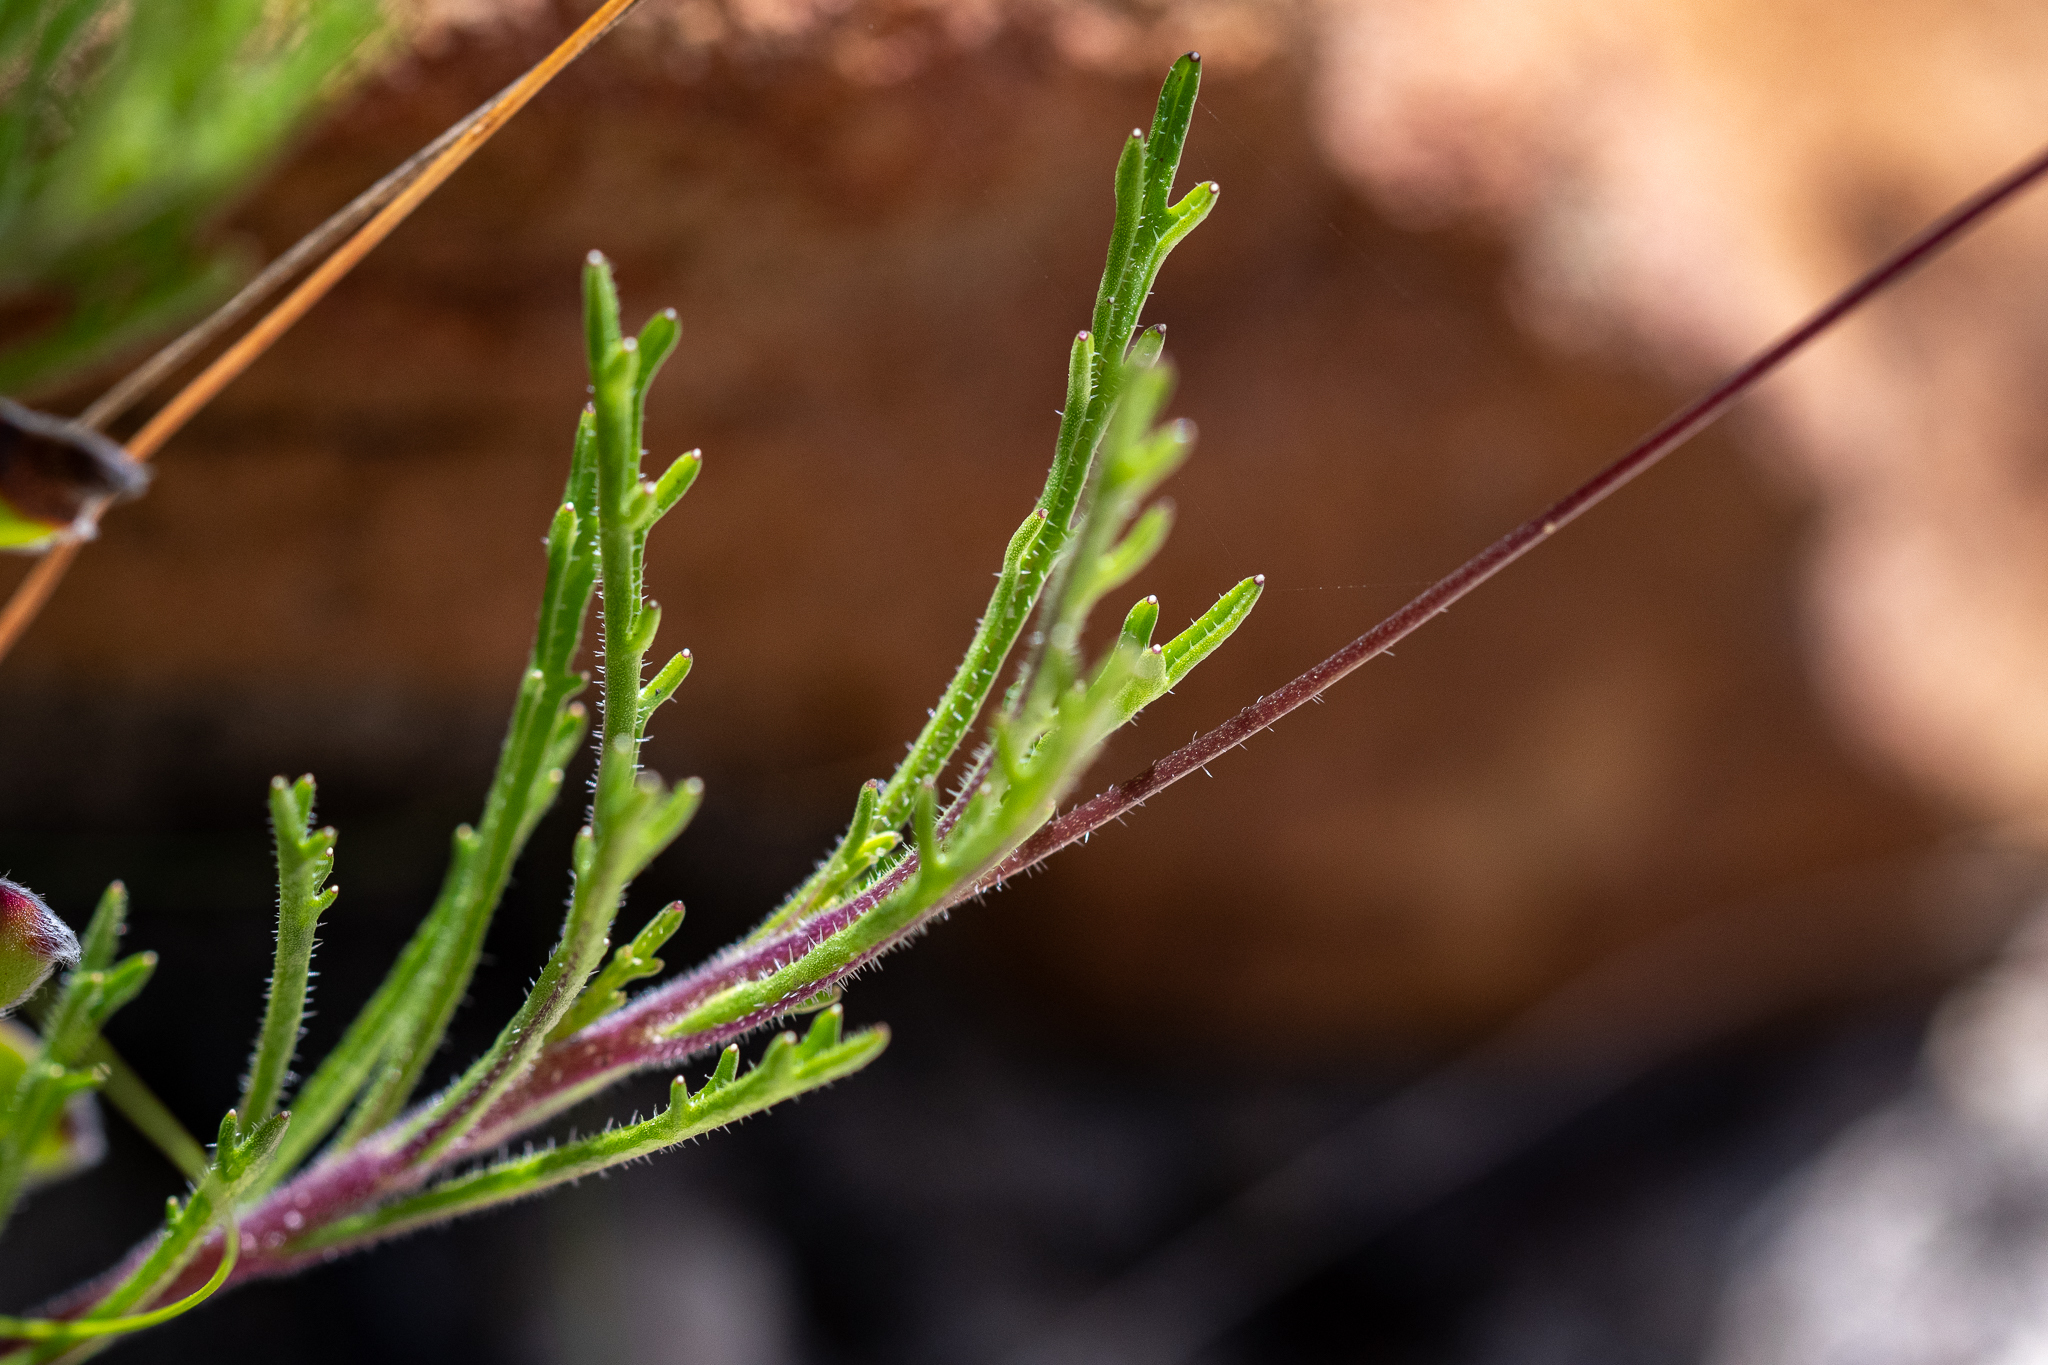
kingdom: Plantae
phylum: Tracheophyta
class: Magnoliopsida
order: Asterales
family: Campanulaceae
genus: Lobelia
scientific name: Lobelia chamaepitys
